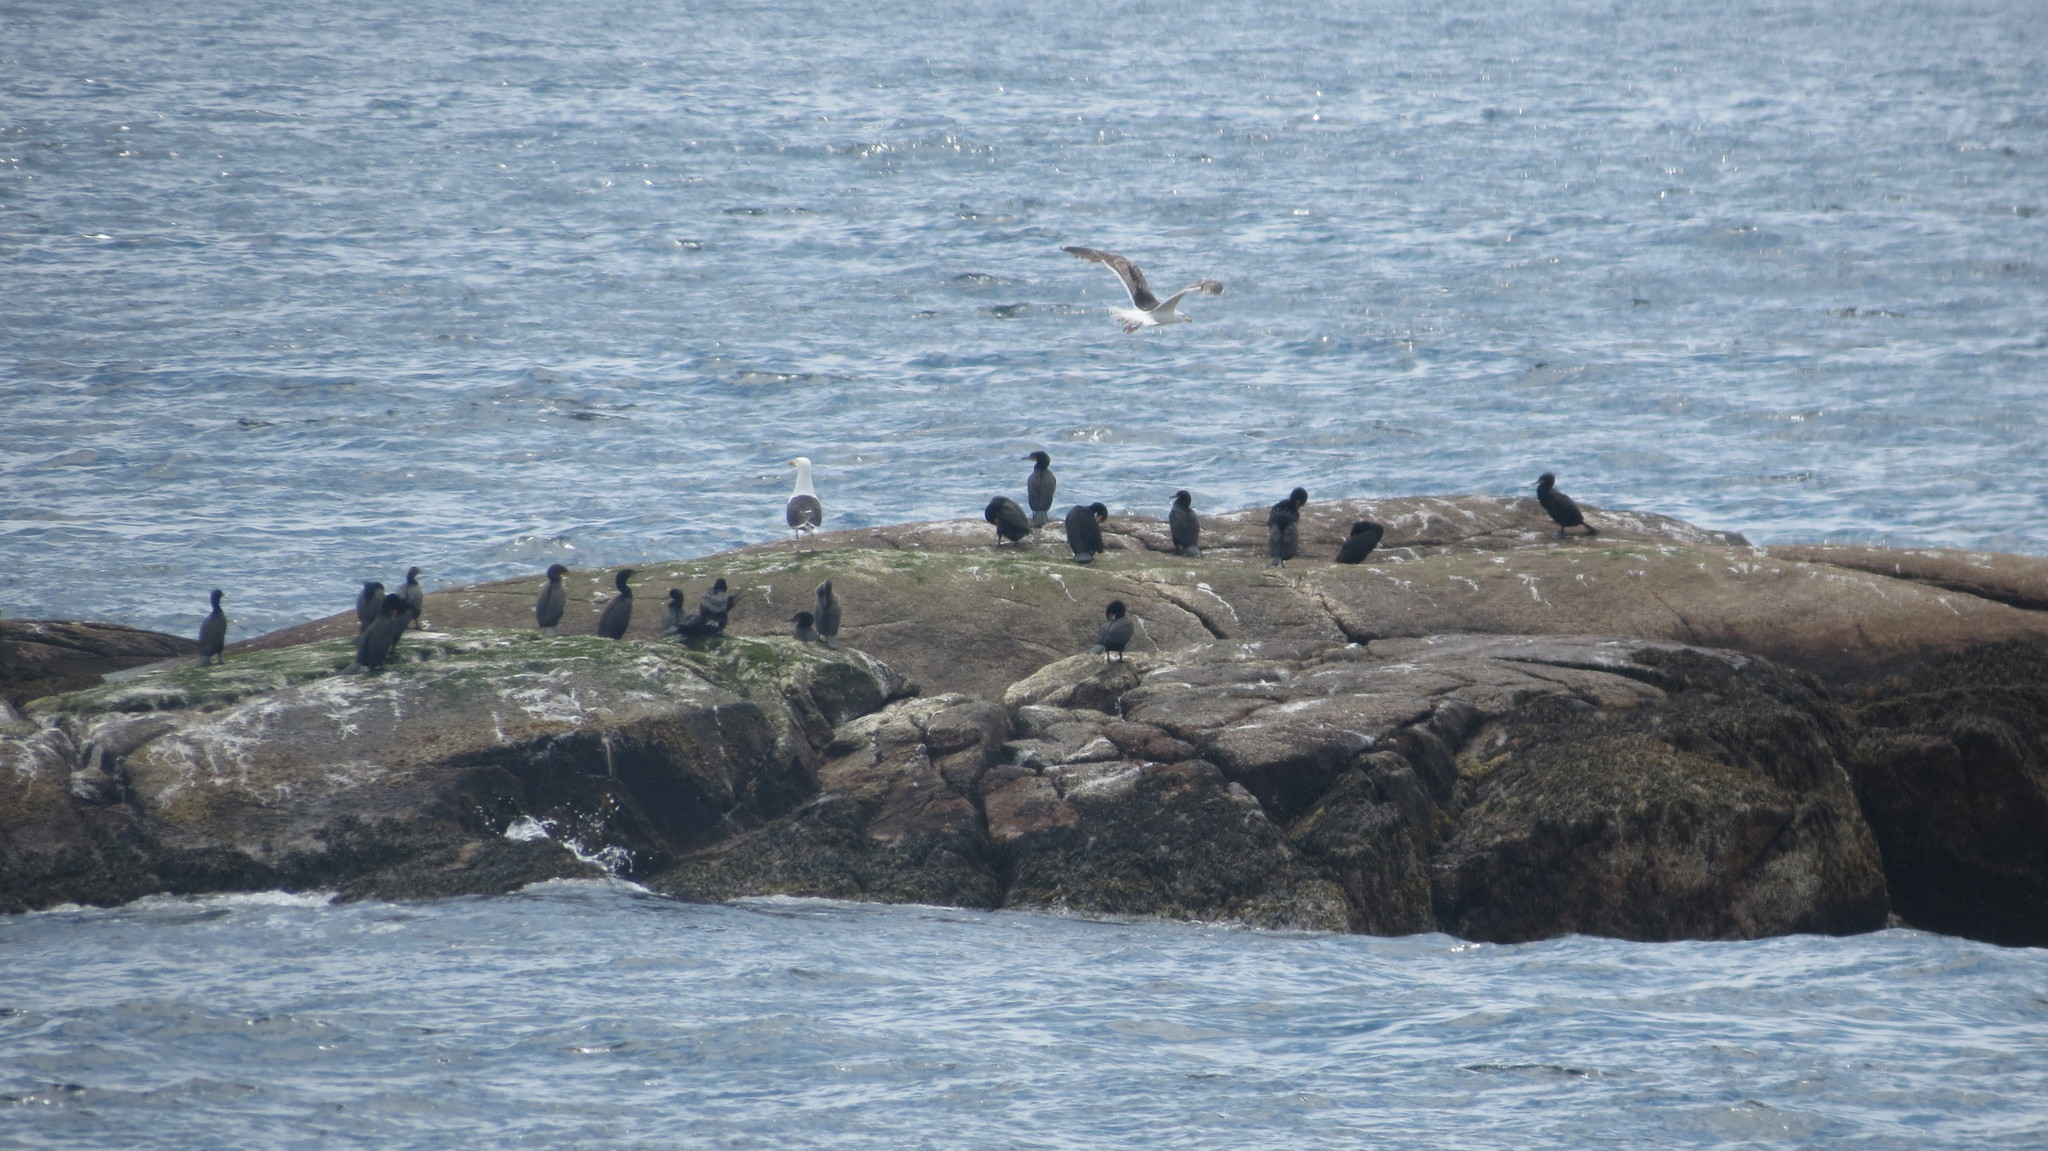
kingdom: Animalia
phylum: Chordata
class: Aves
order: Suliformes
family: Phalacrocoracidae
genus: Phalacrocorax
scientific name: Phalacrocorax auritus
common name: Double-crested cormorant
